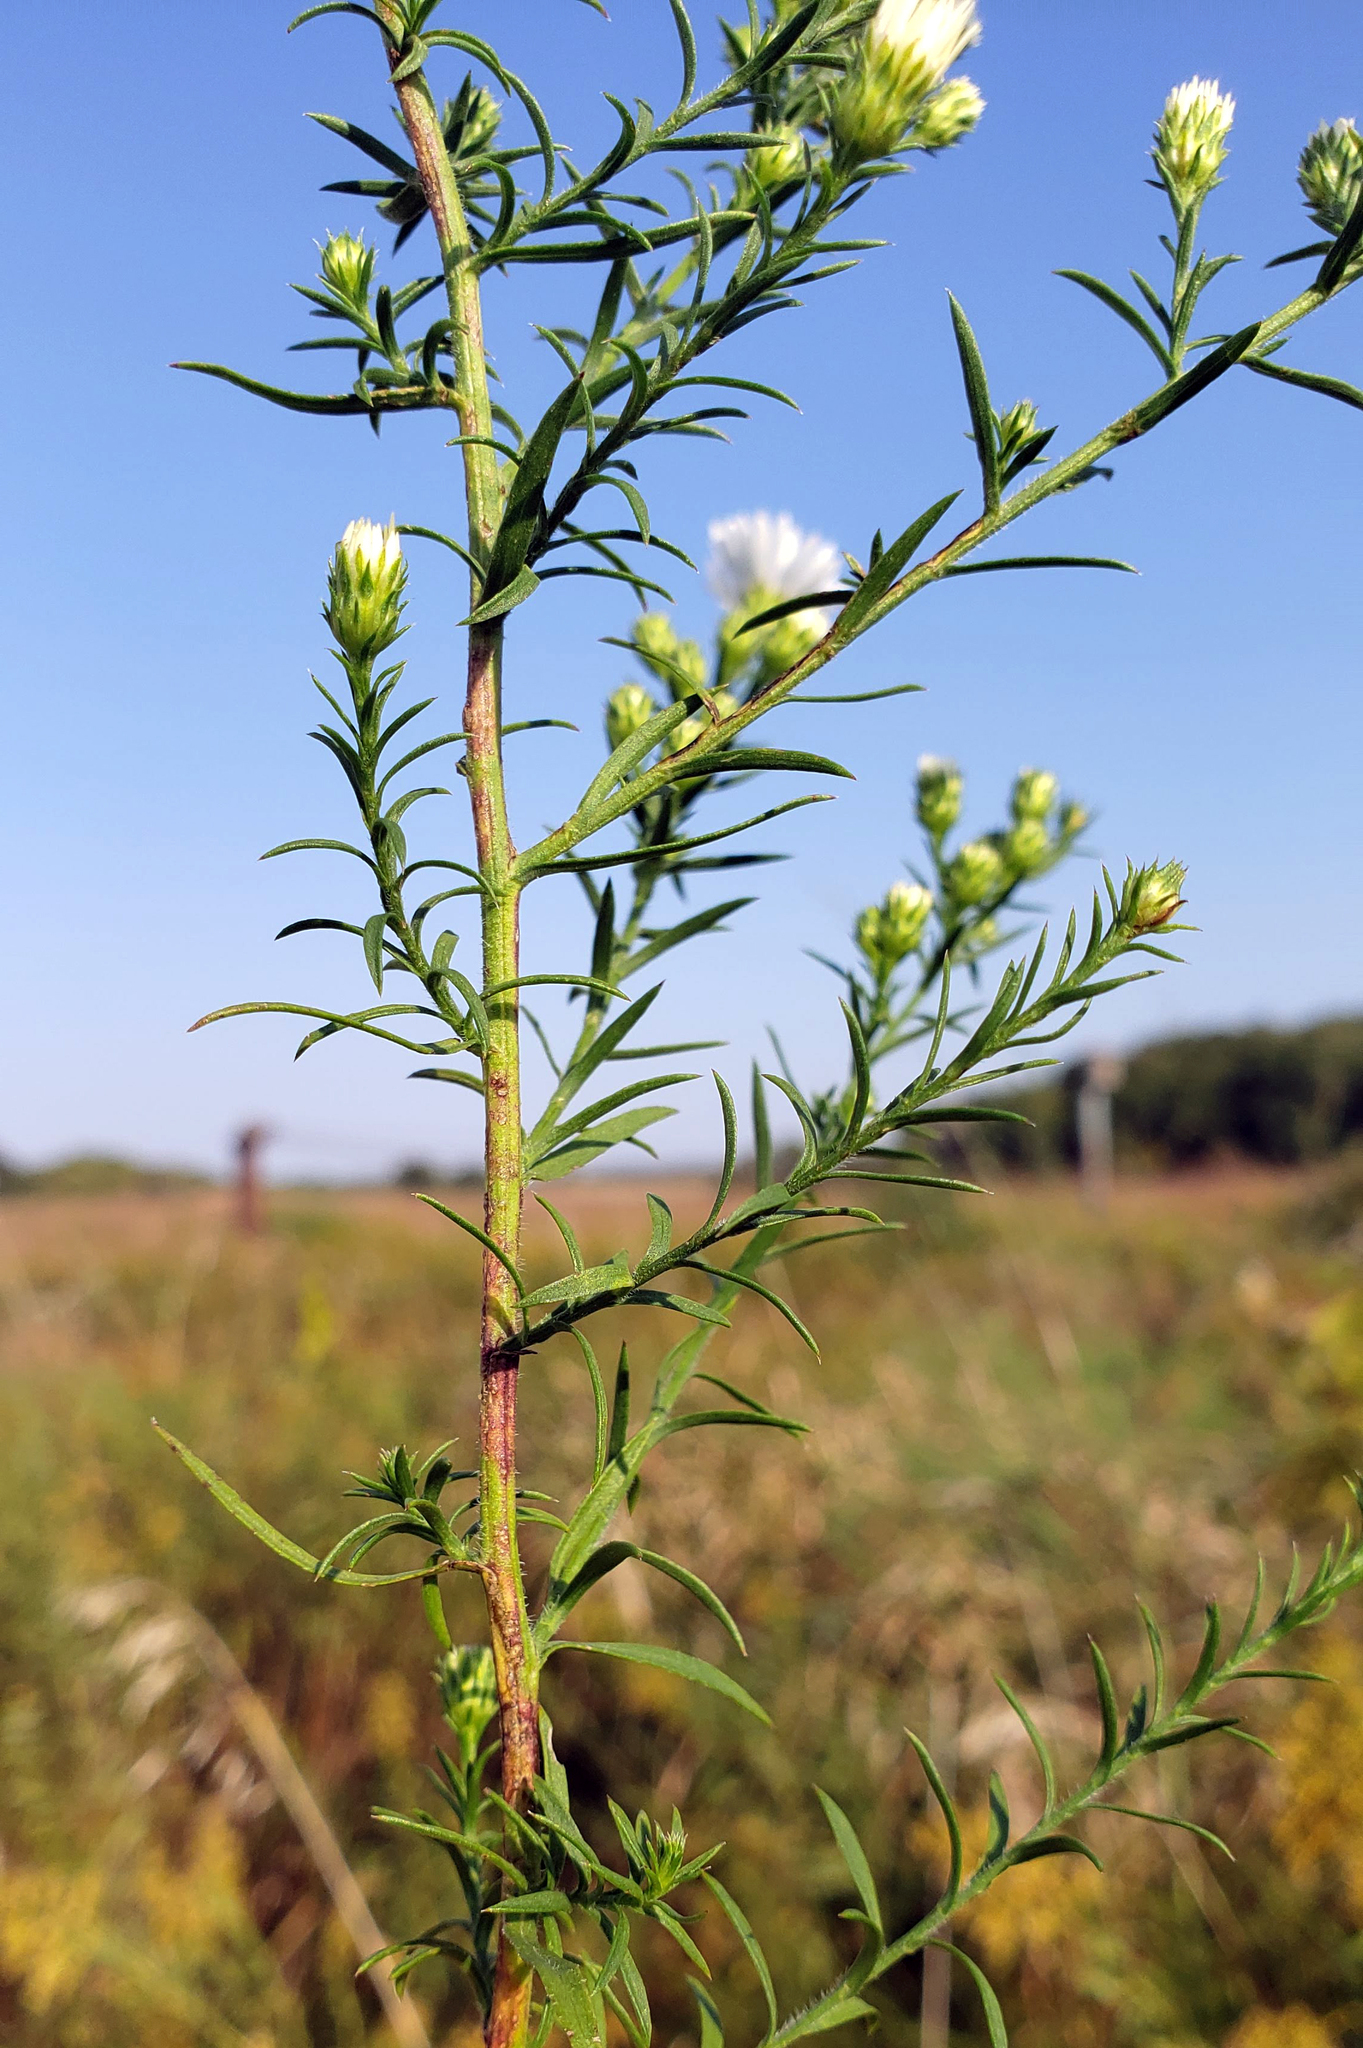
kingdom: Plantae
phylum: Tracheophyta
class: Magnoliopsida
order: Asterales
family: Asteraceae
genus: Symphyotrichum
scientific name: Symphyotrichum pilosum
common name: Awl aster
